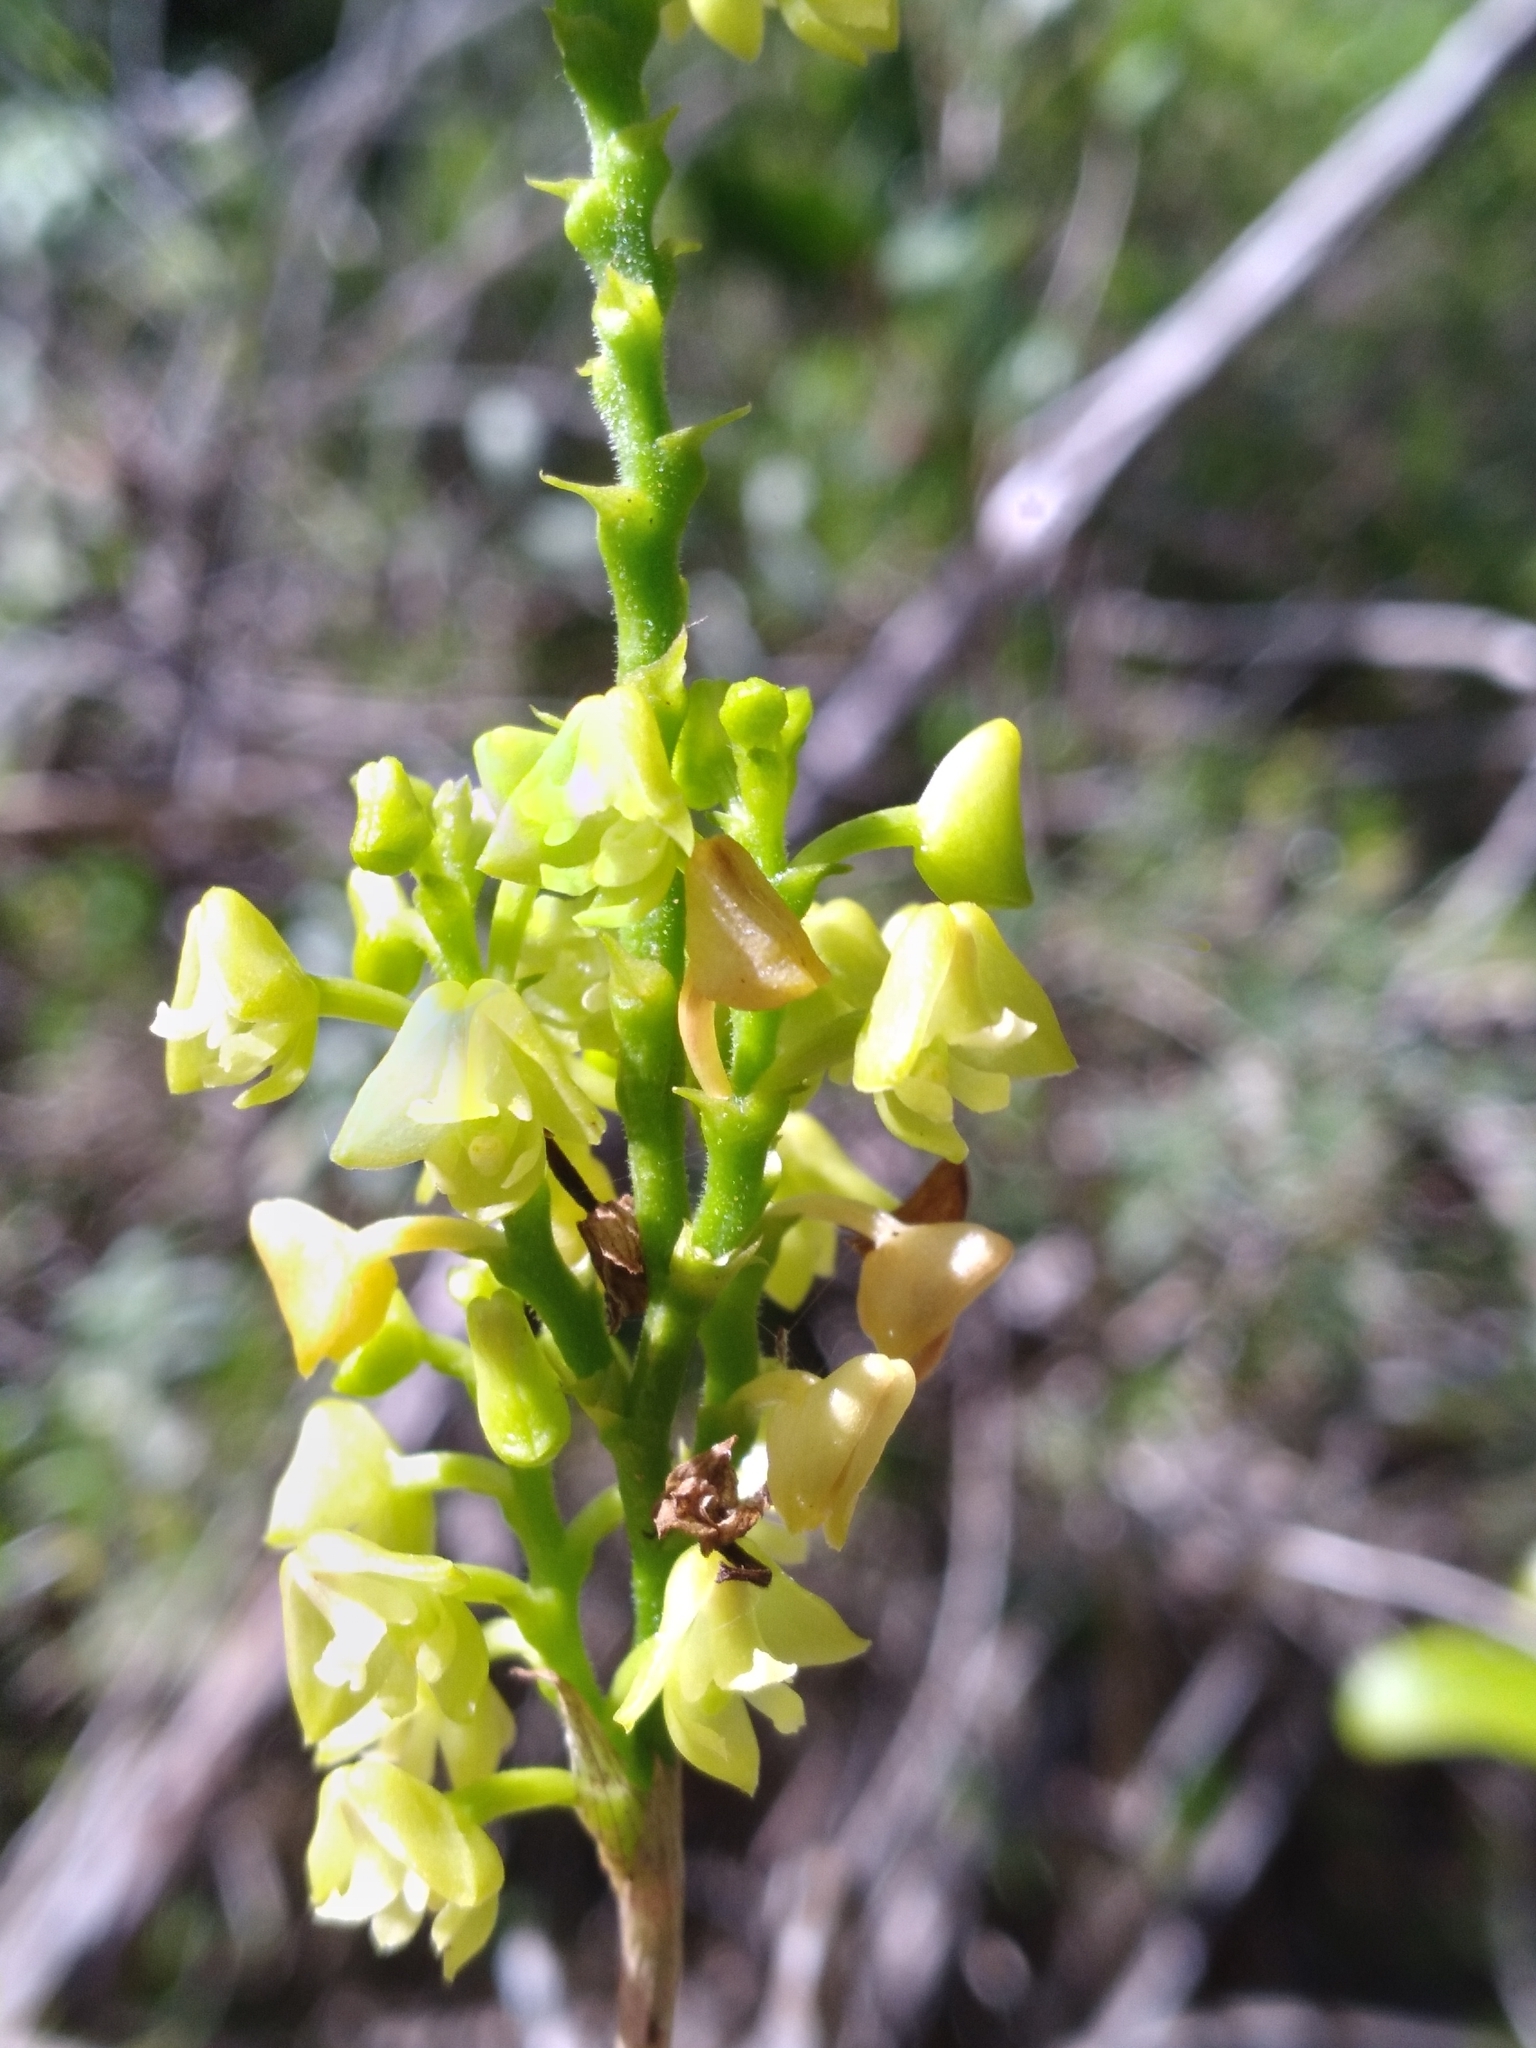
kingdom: Plantae
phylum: Tracheophyta
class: Liliopsida
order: Asparagales
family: Orchidaceae
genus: Polystachya
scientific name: Polystachya concreta
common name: Greater yellowspike orchid
